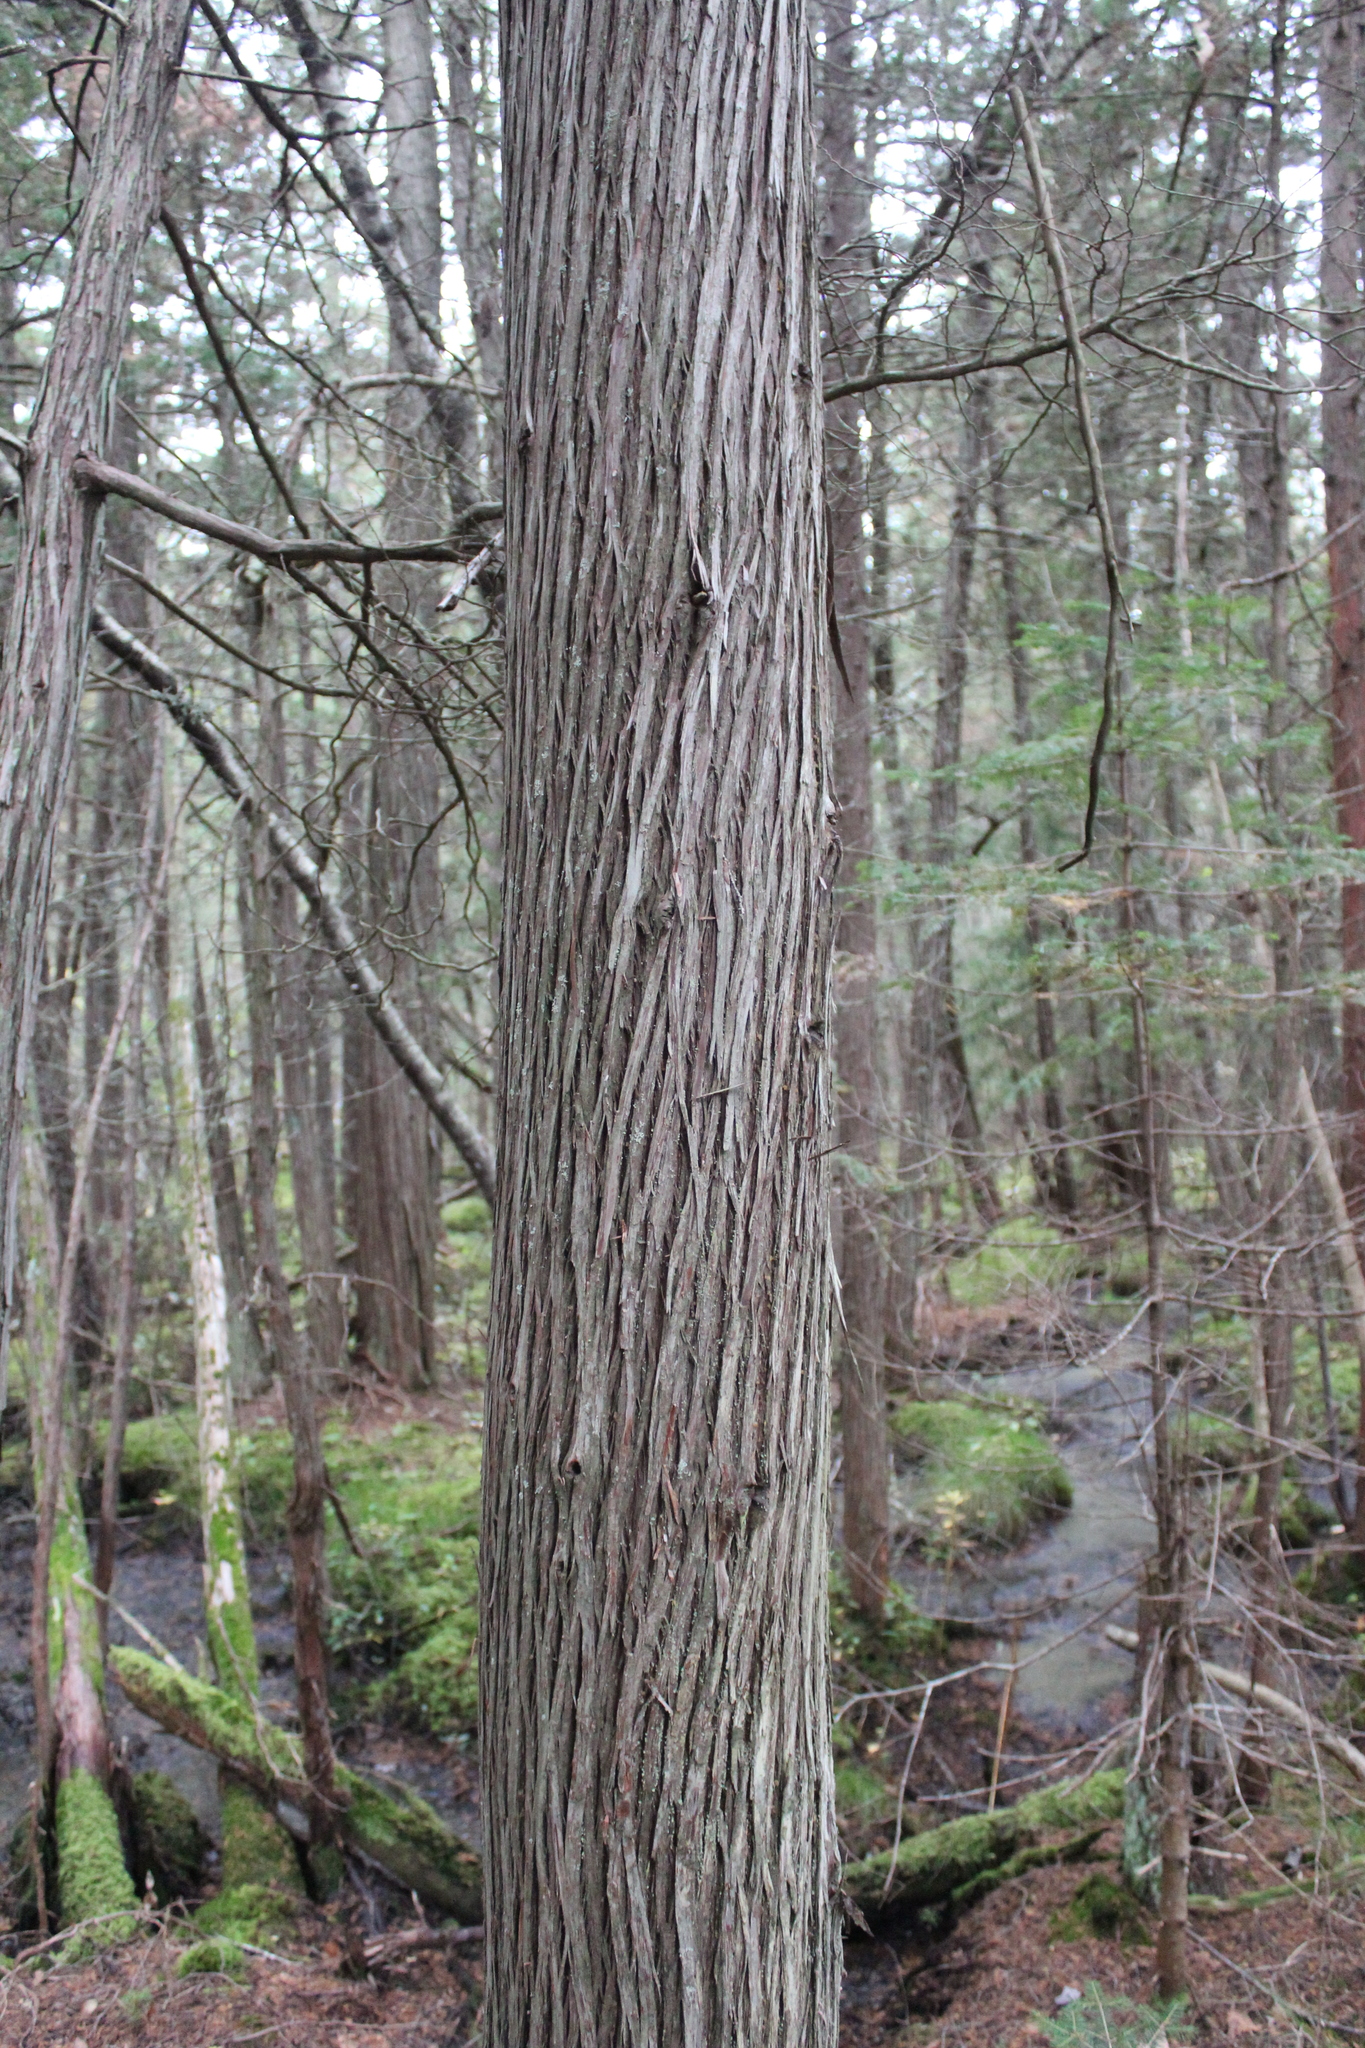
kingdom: Plantae
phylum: Tracheophyta
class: Pinopsida
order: Pinales
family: Cupressaceae
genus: Chamaecyparis
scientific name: Chamaecyparis thyoides
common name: Atlantic white cedar
